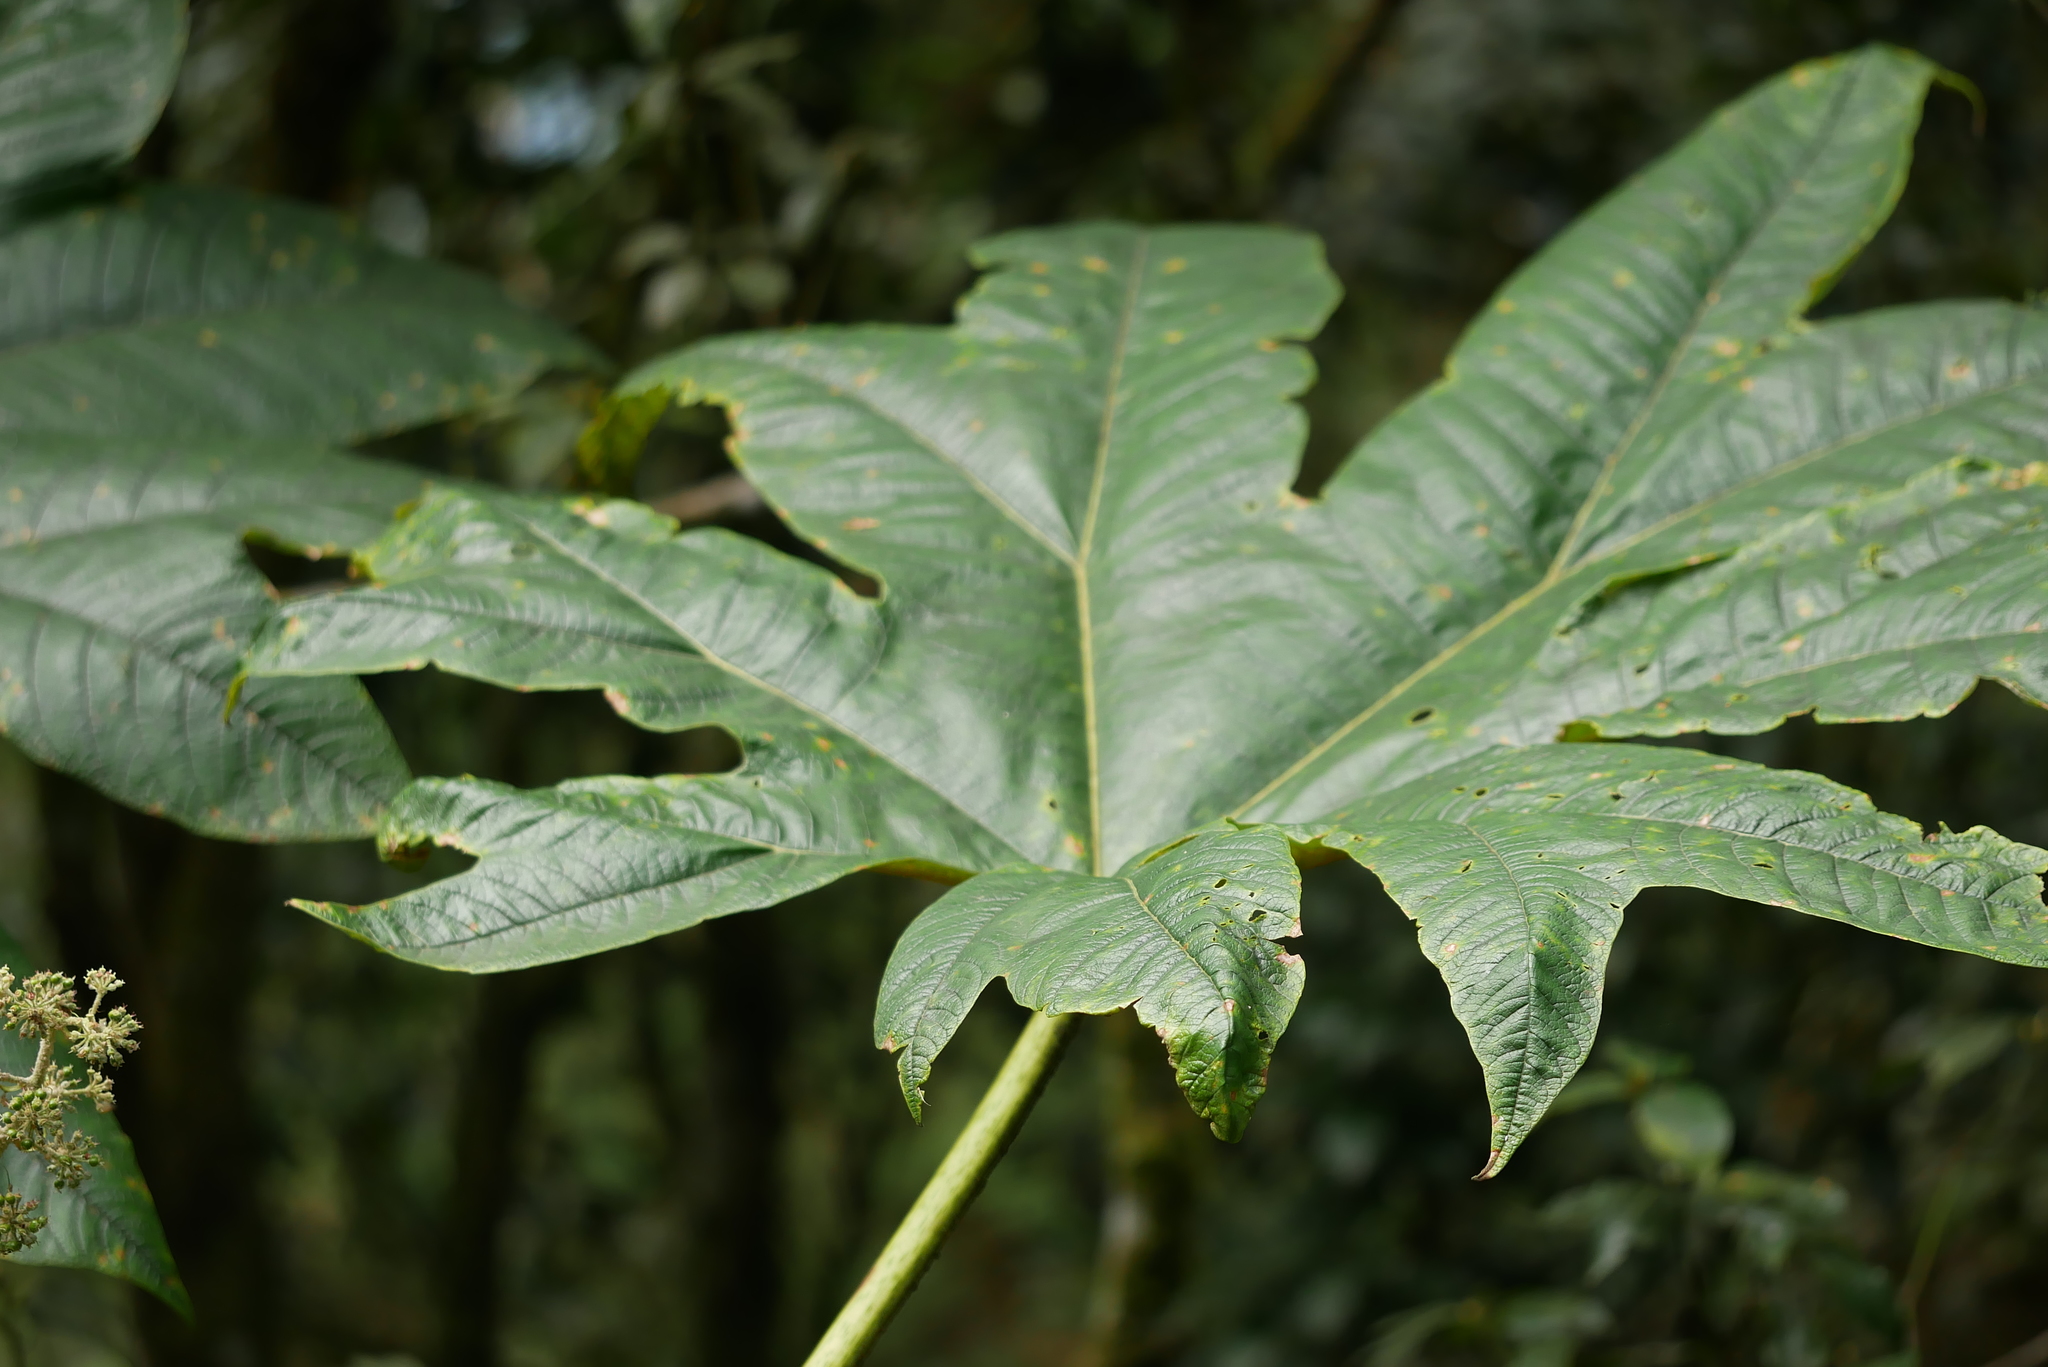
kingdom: Plantae
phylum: Tracheophyta
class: Magnoliopsida
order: Apiales
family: Araliaceae
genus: Tetrapanax
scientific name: Tetrapanax papyrifer
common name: Rice-paper plant
